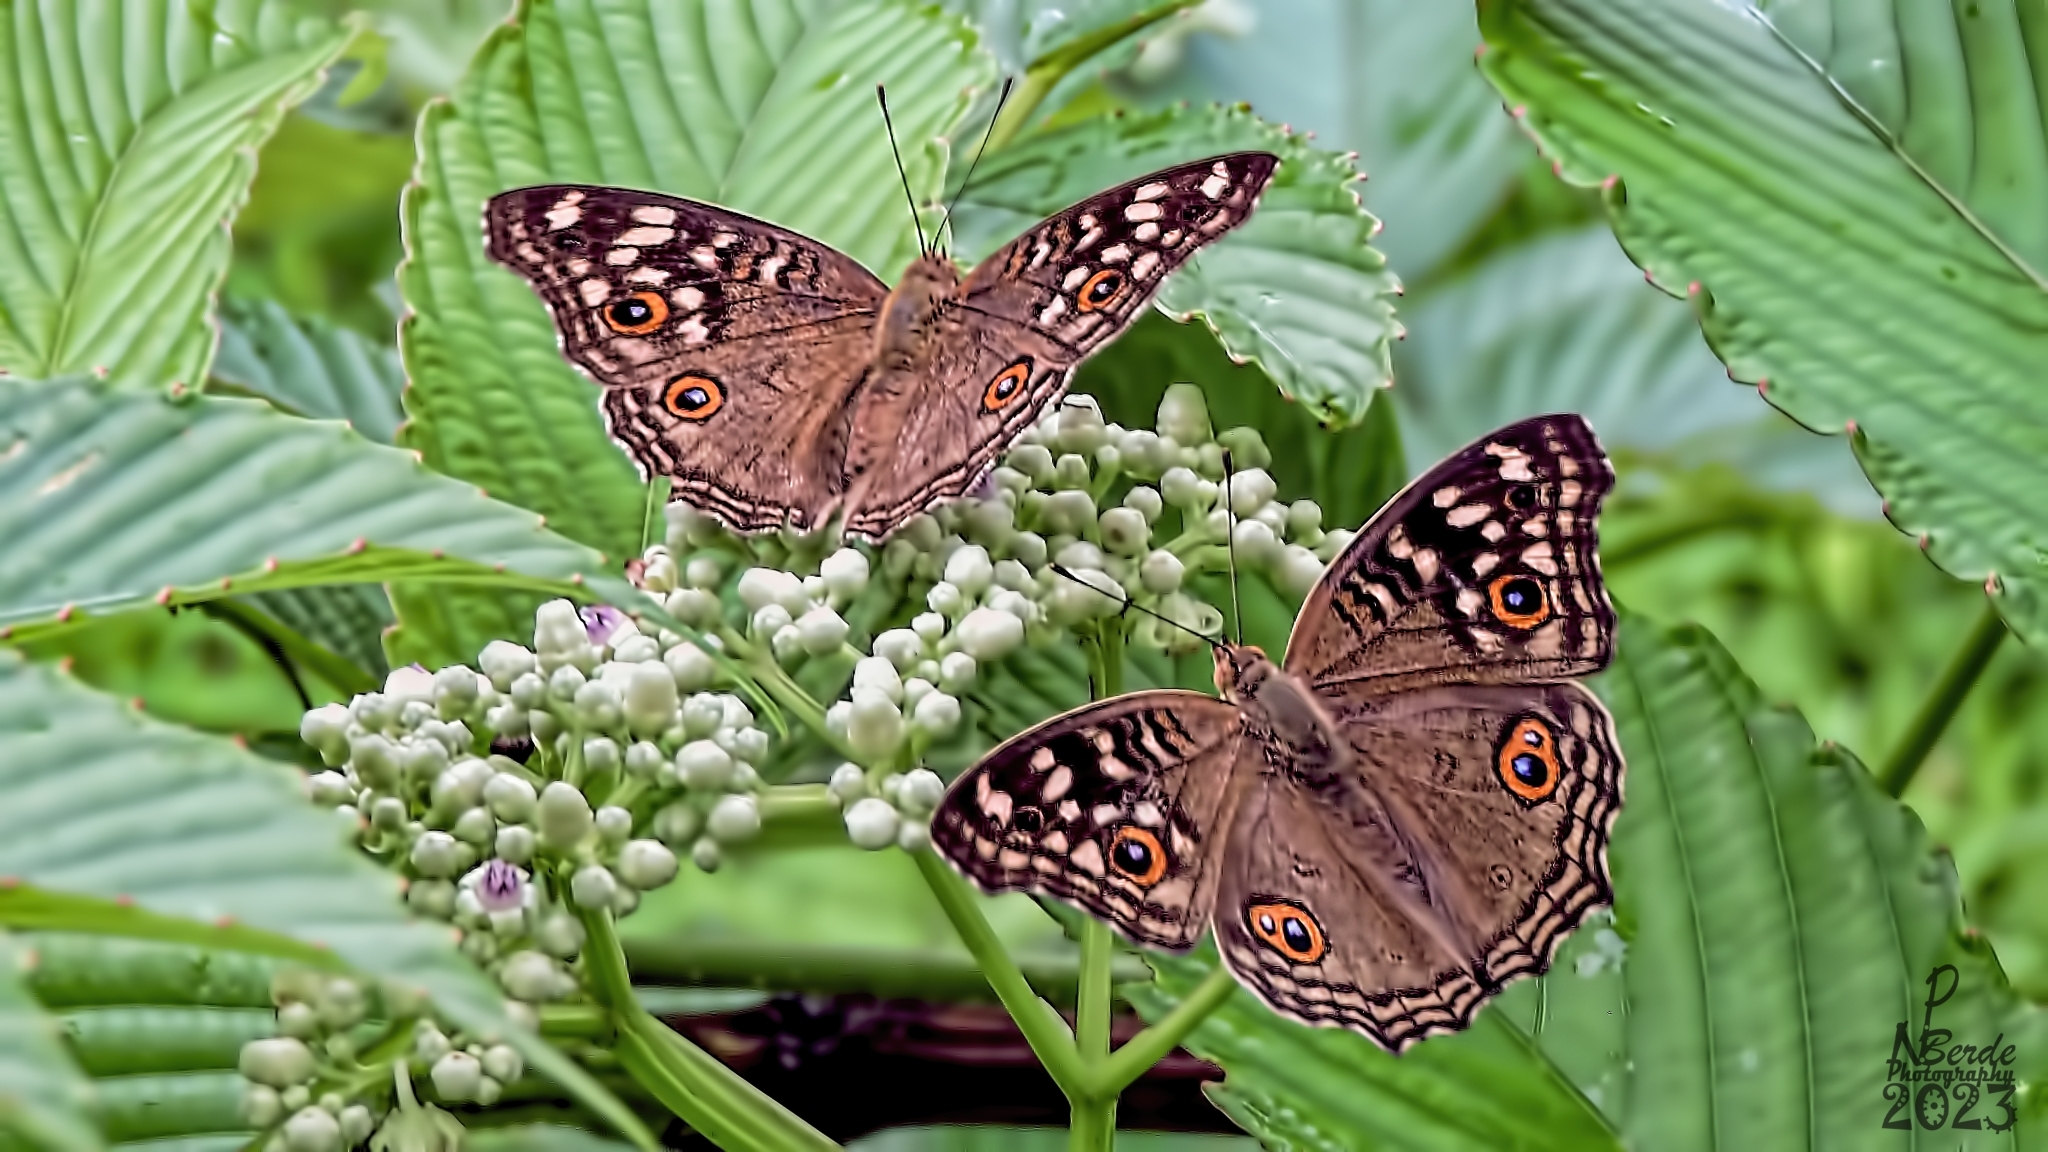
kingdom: Animalia
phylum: Arthropoda
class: Insecta
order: Lepidoptera
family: Nymphalidae
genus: Junonia
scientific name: Junonia lemonias
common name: Lemon pansy
